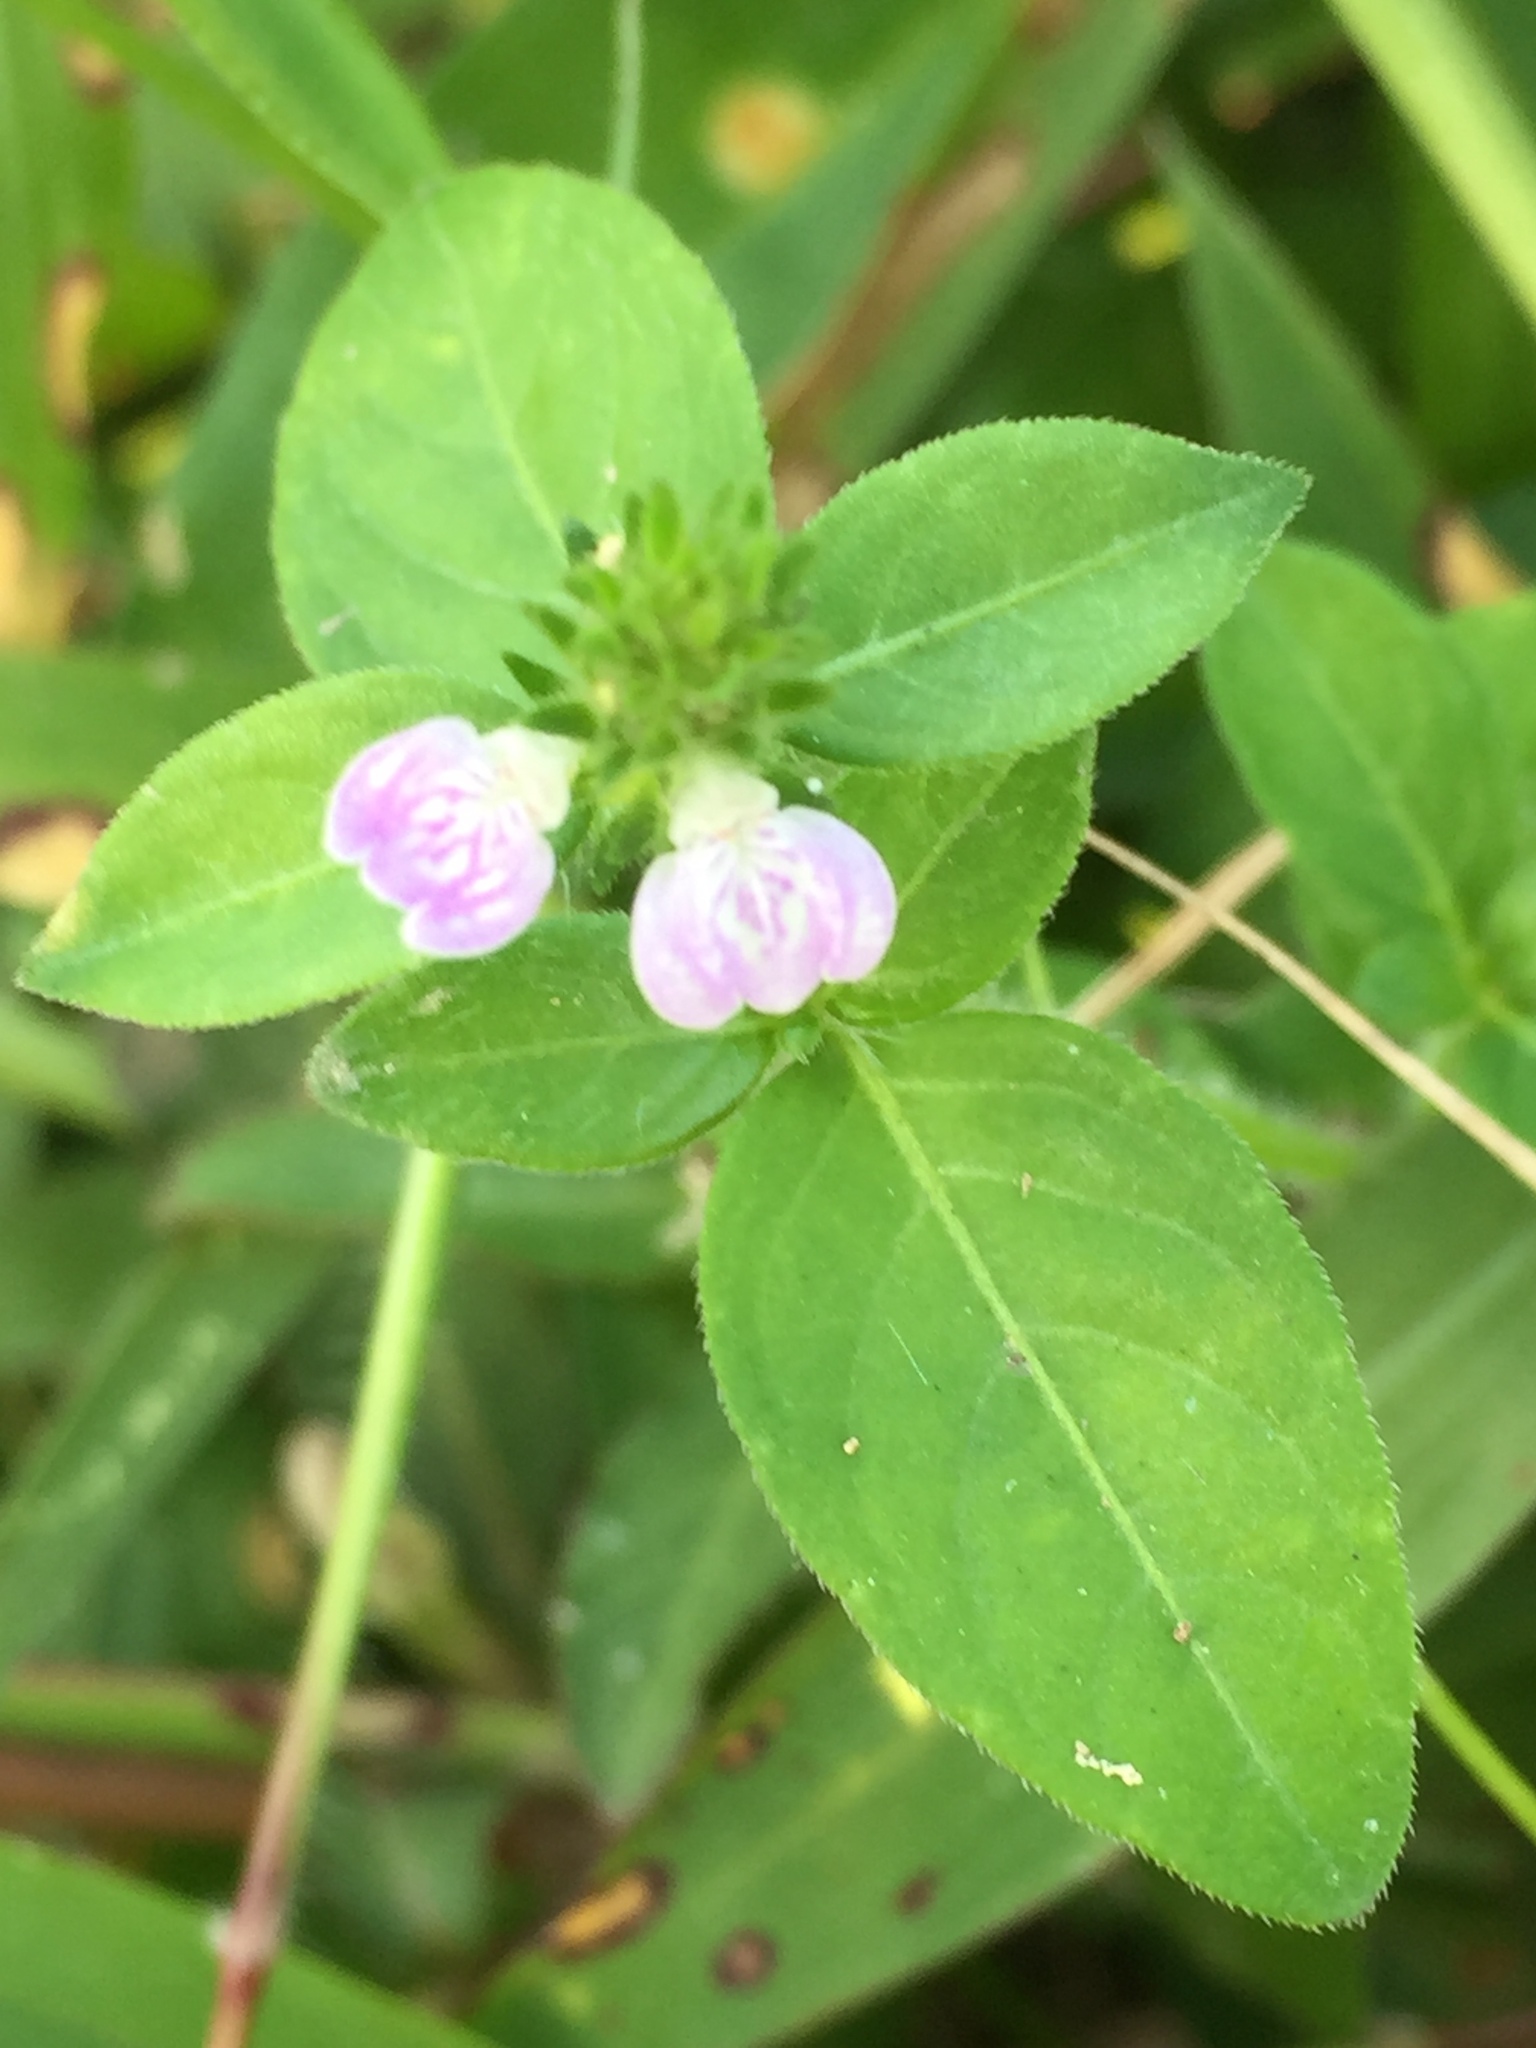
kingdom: Plantae
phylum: Tracheophyta
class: Magnoliopsida
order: Lamiales
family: Acanthaceae
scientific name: Acanthaceae
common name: Acanthaceae
